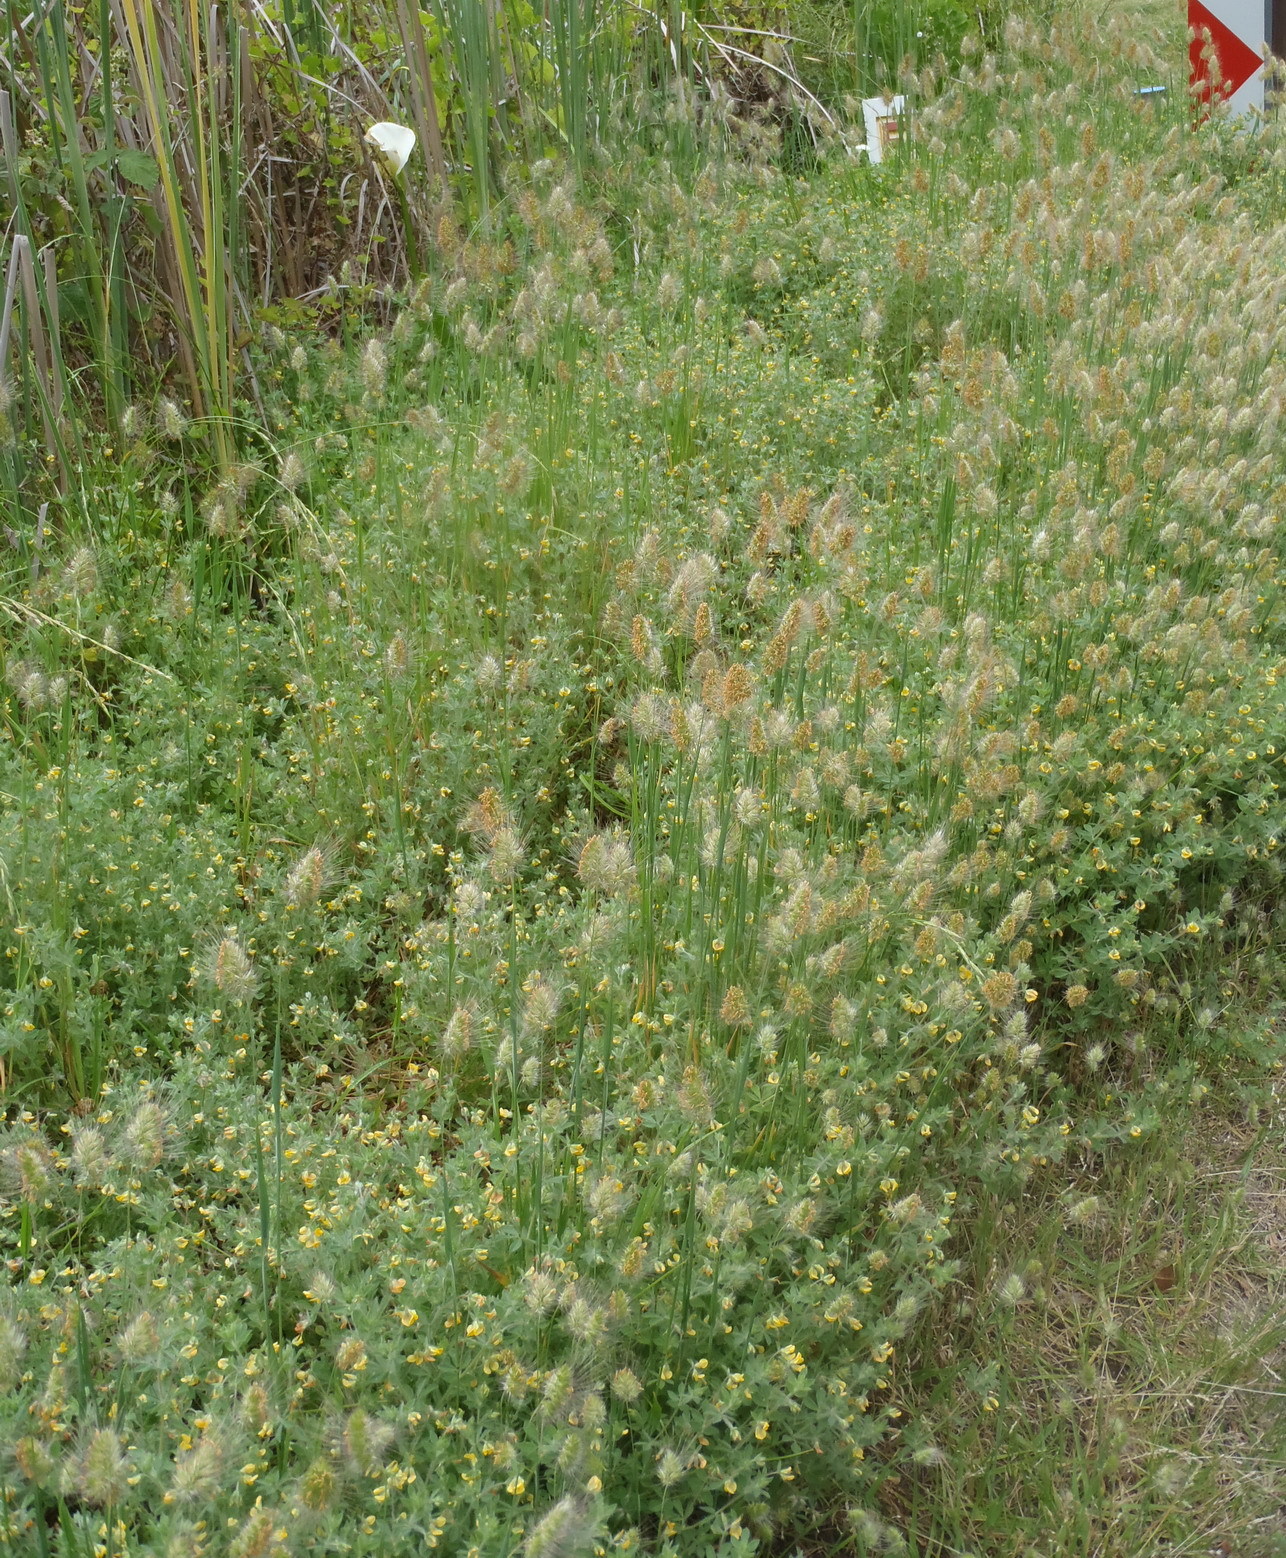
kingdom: Plantae
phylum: Tracheophyta
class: Liliopsida
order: Poales
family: Poaceae
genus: Cynosurus
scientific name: Cynosurus echinatus
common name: Rough dog's-tail
